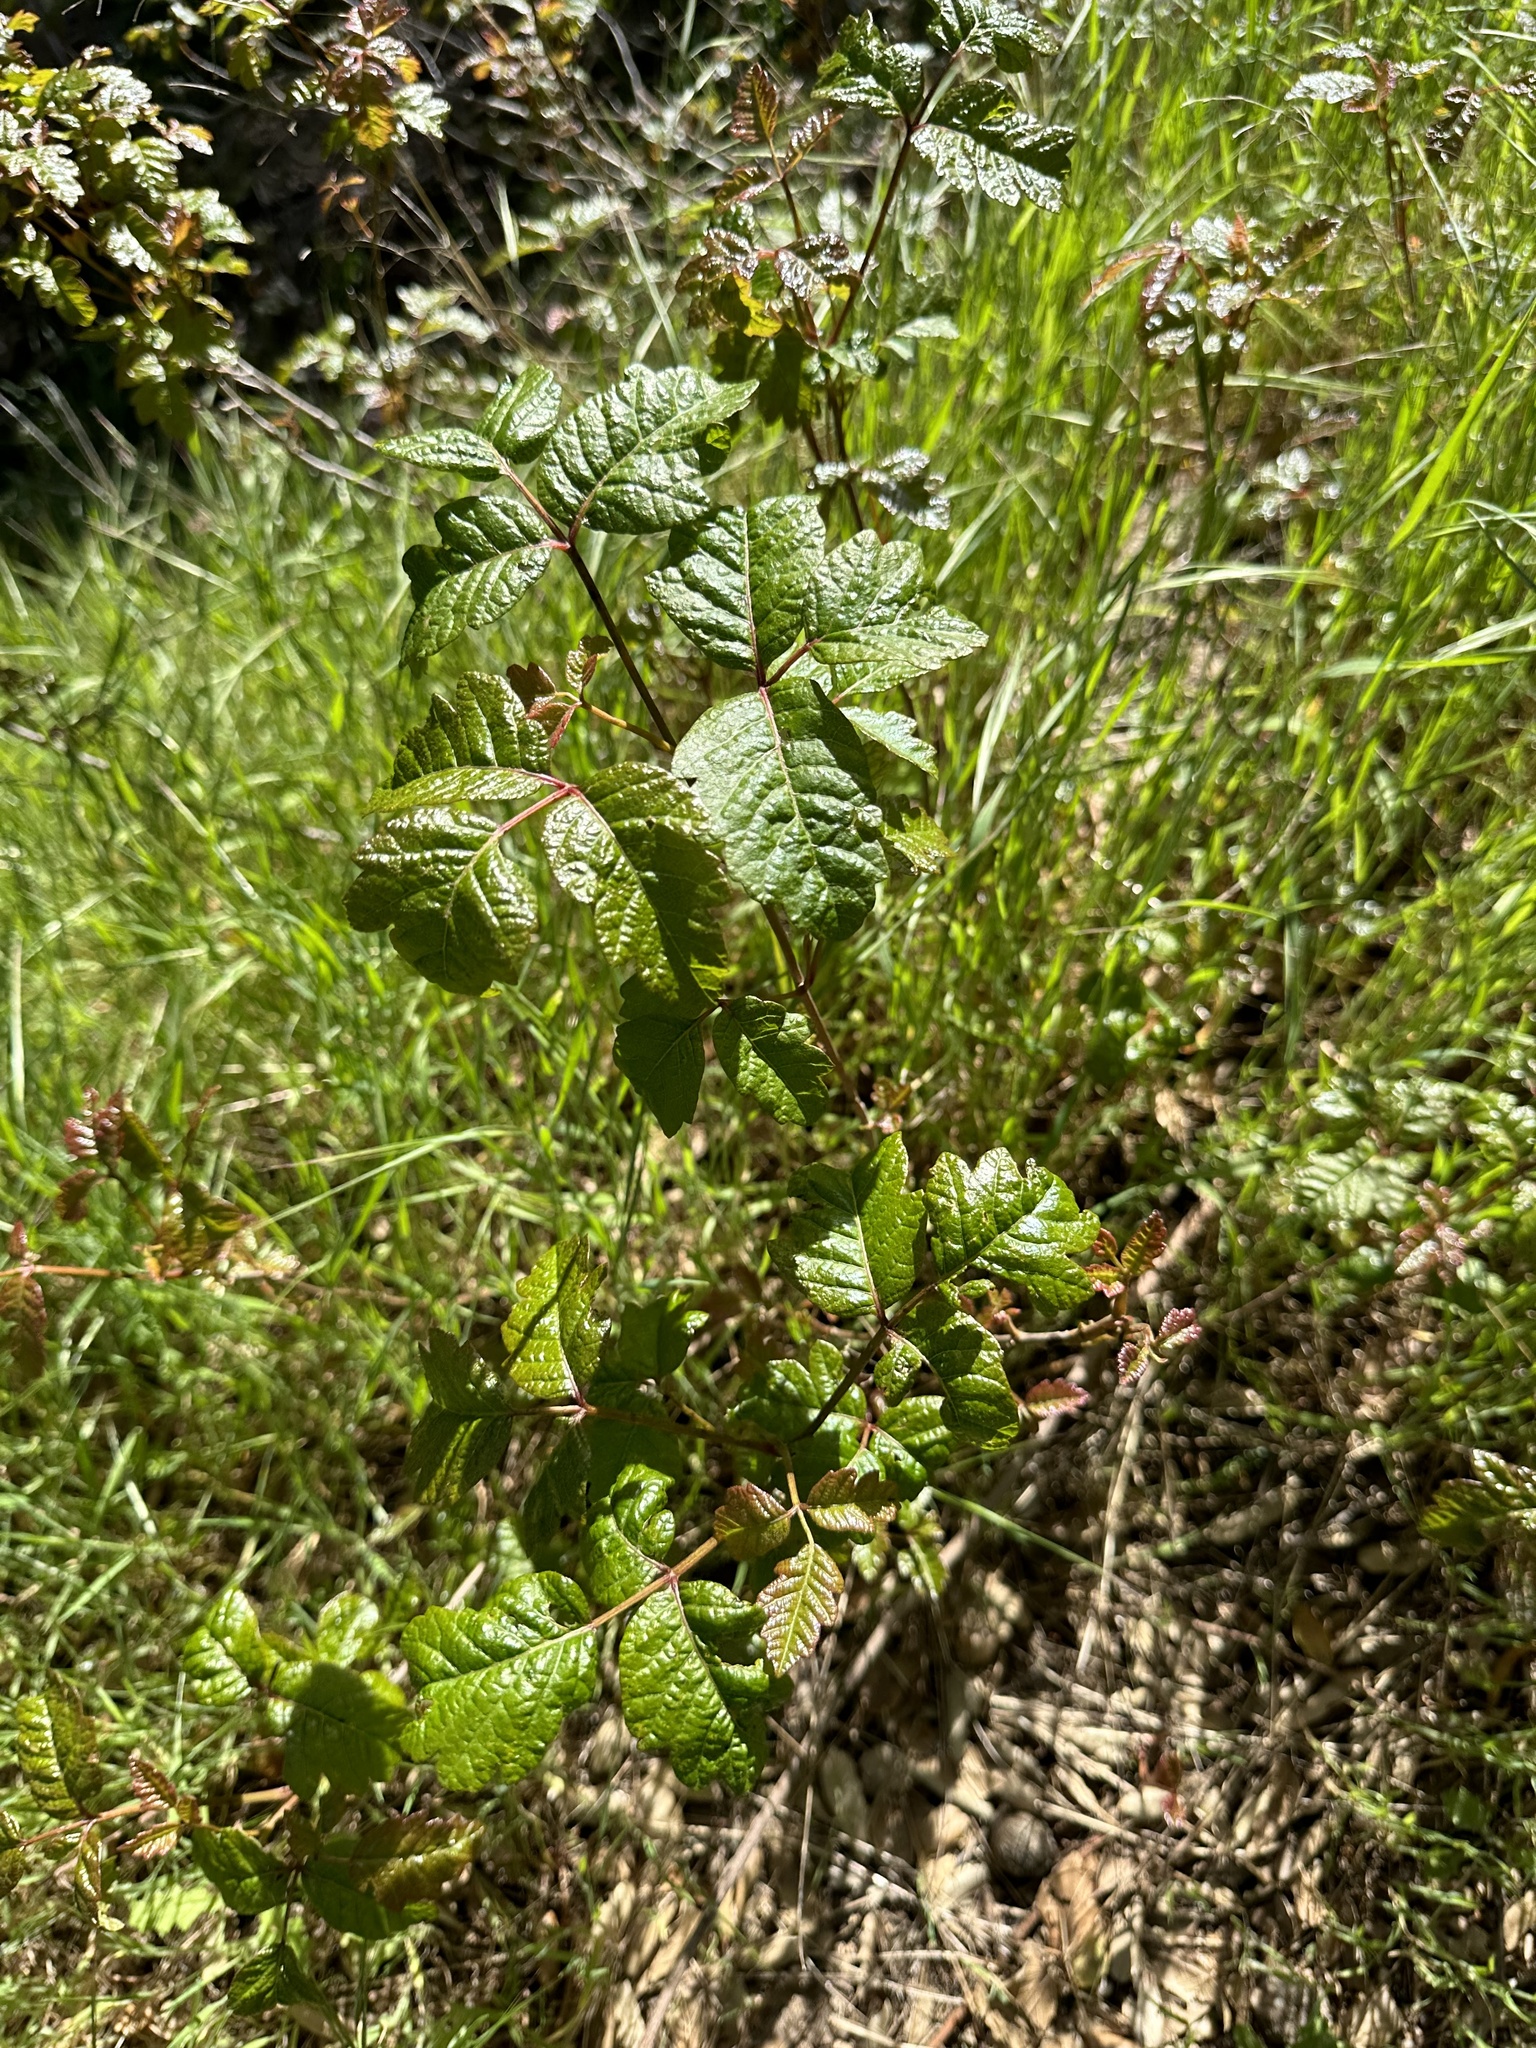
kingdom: Plantae
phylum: Tracheophyta
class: Magnoliopsida
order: Sapindales
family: Anacardiaceae
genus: Toxicodendron
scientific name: Toxicodendron diversilobum
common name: Pacific poison-oak
